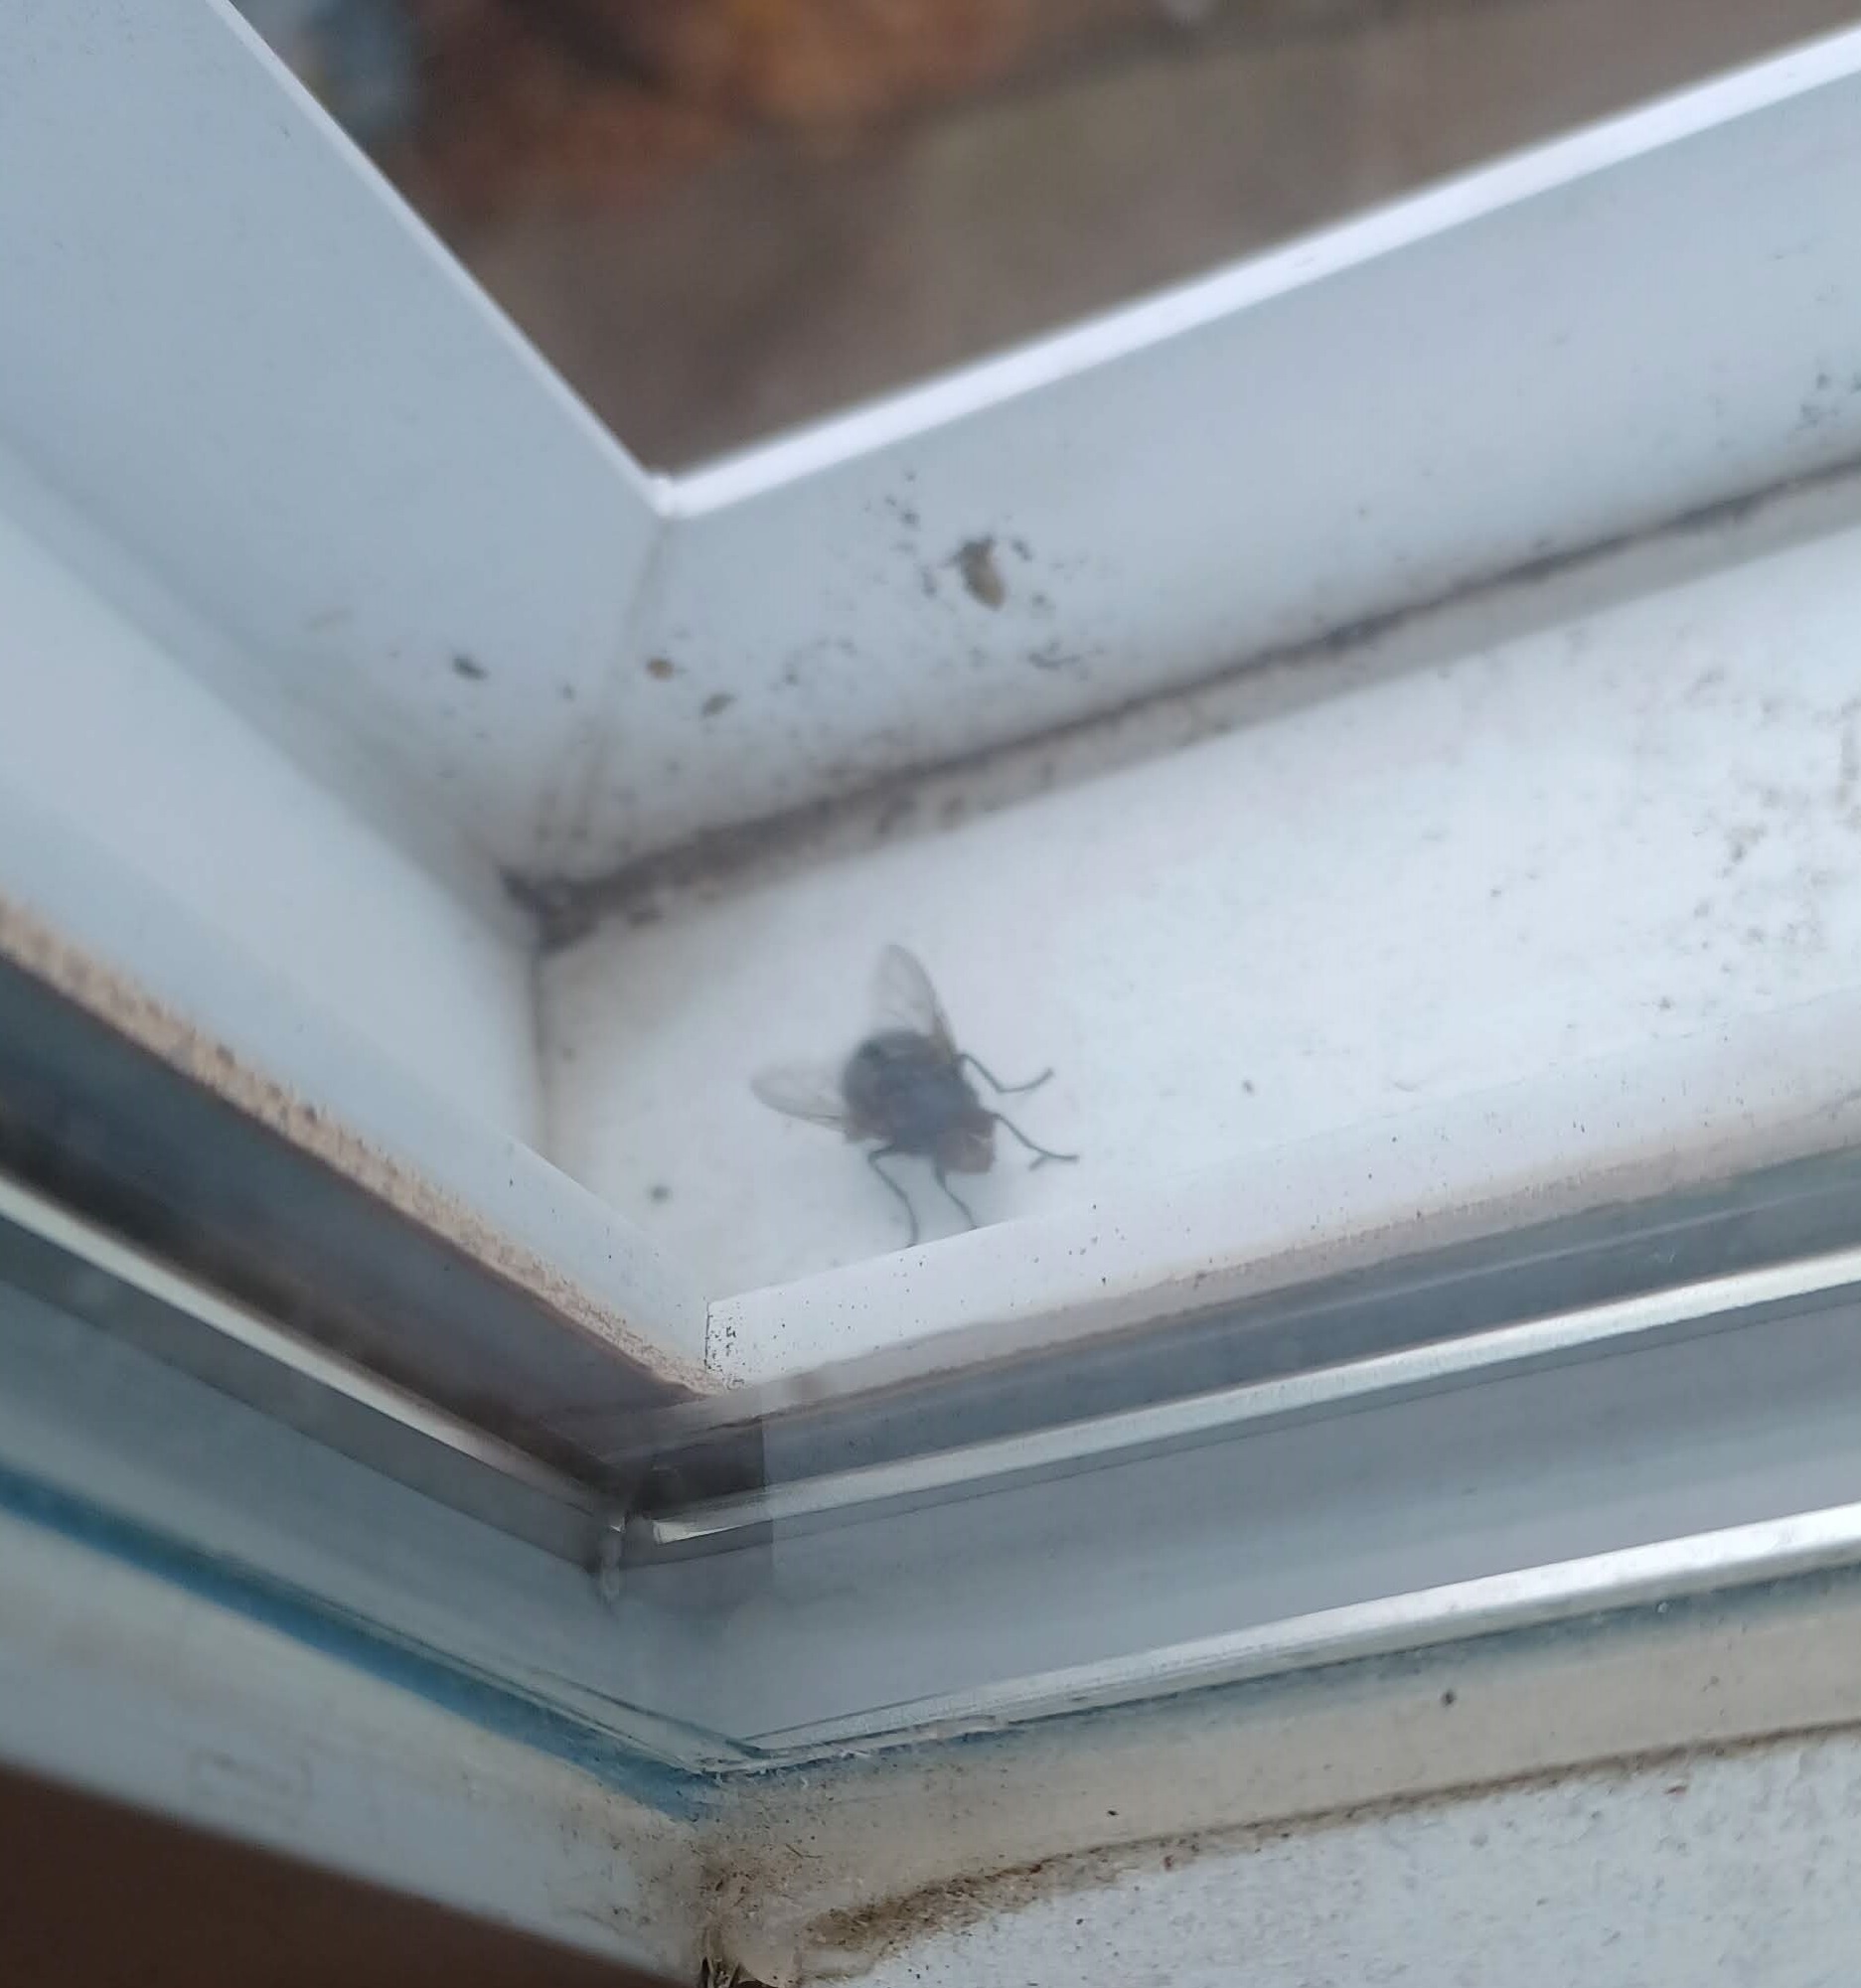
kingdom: Animalia
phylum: Arthropoda
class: Insecta
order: Diptera
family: Calliphoridae
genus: Calliphora
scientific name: Calliphora vicina
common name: Common blow flie
